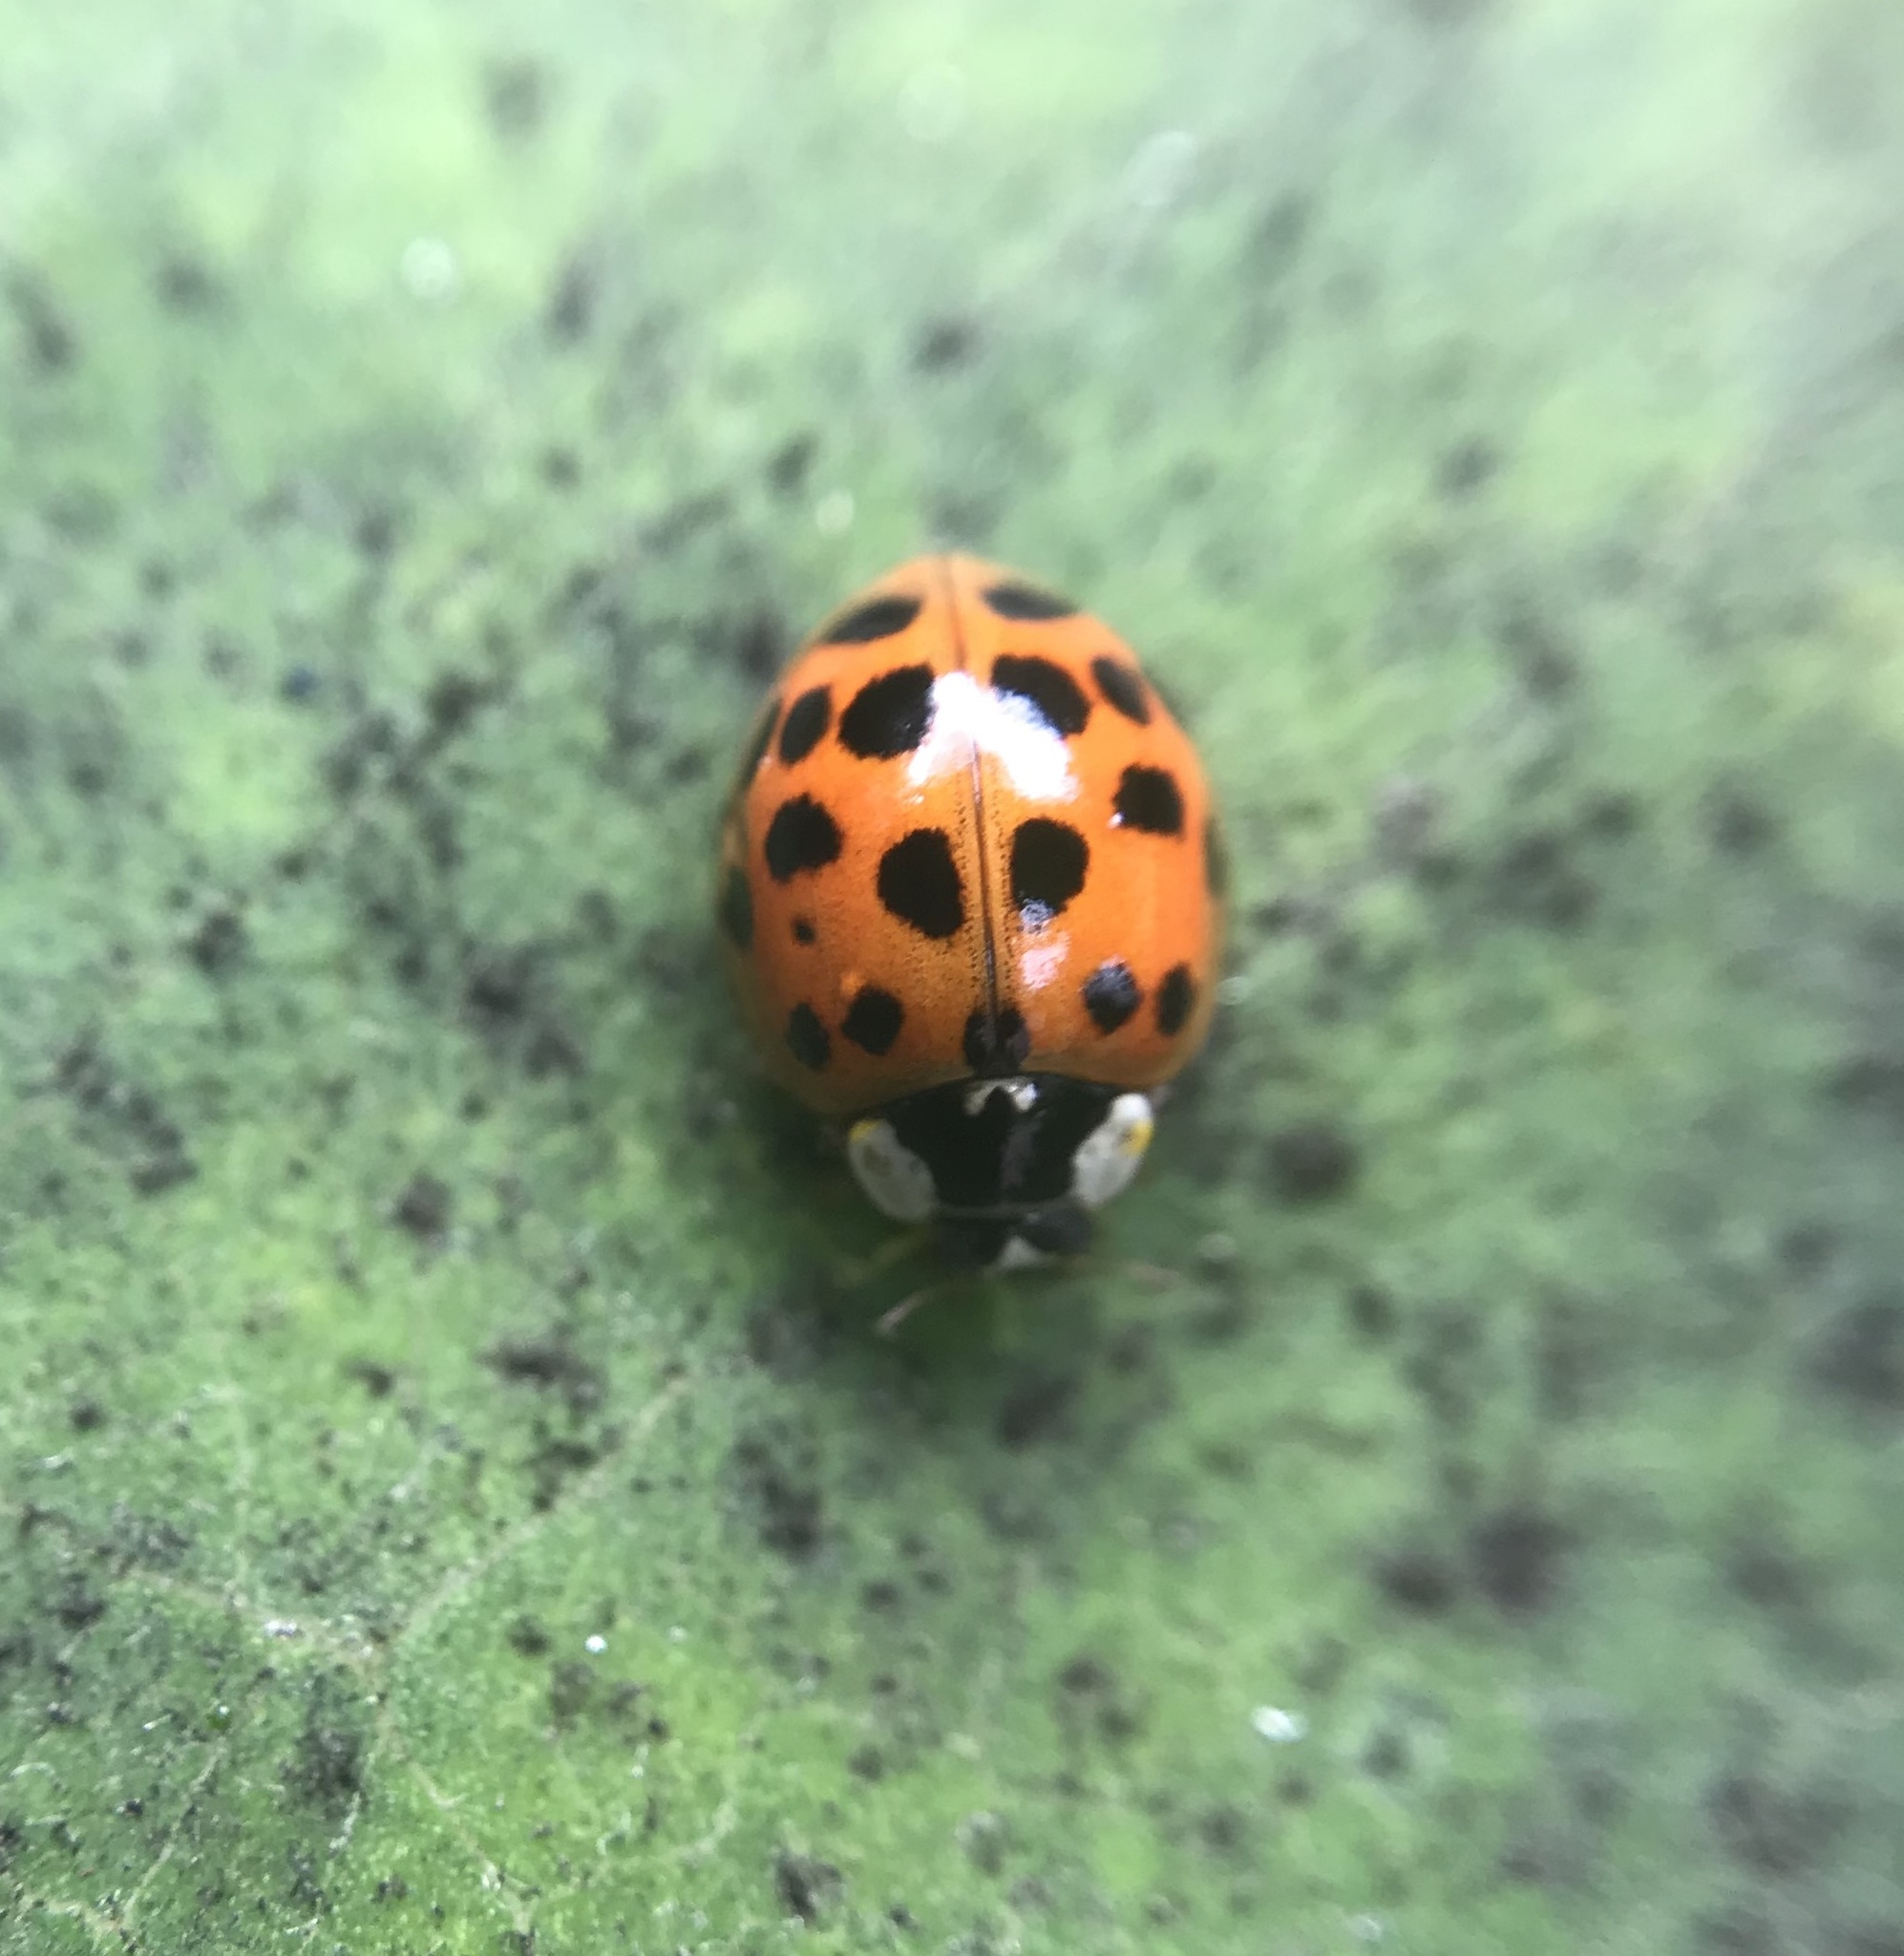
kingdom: Animalia
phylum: Arthropoda
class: Insecta
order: Coleoptera
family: Coccinellidae
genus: Harmonia
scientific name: Harmonia axyridis
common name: Harlequin ladybird
